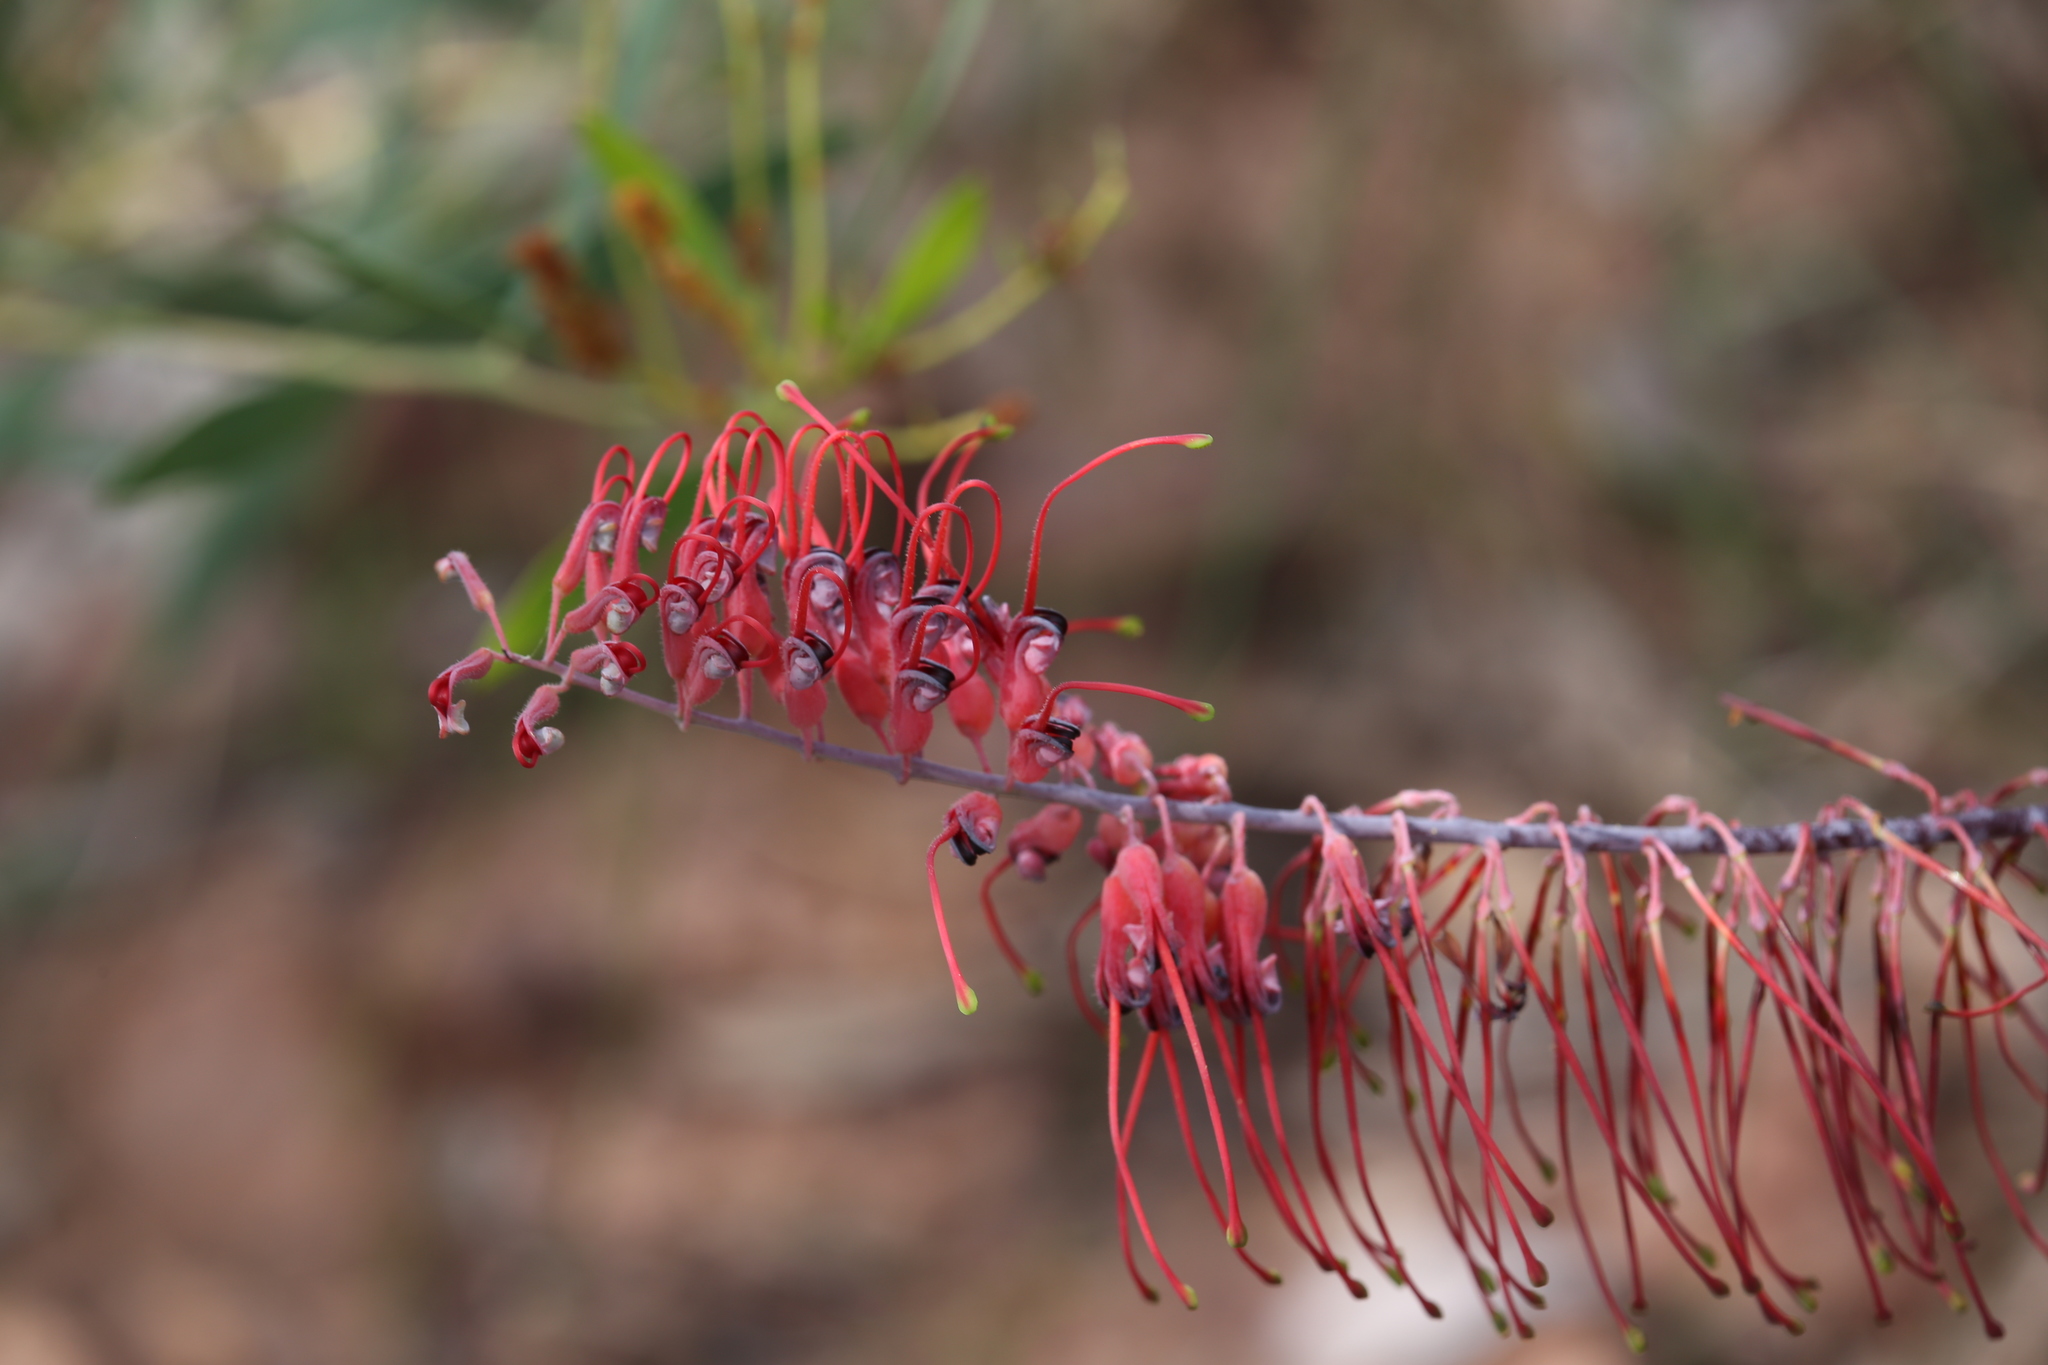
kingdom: Plantae
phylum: Tracheophyta
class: Magnoliopsida
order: Proteales
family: Proteaceae
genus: Grevillea
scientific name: Grevillea dryandri
